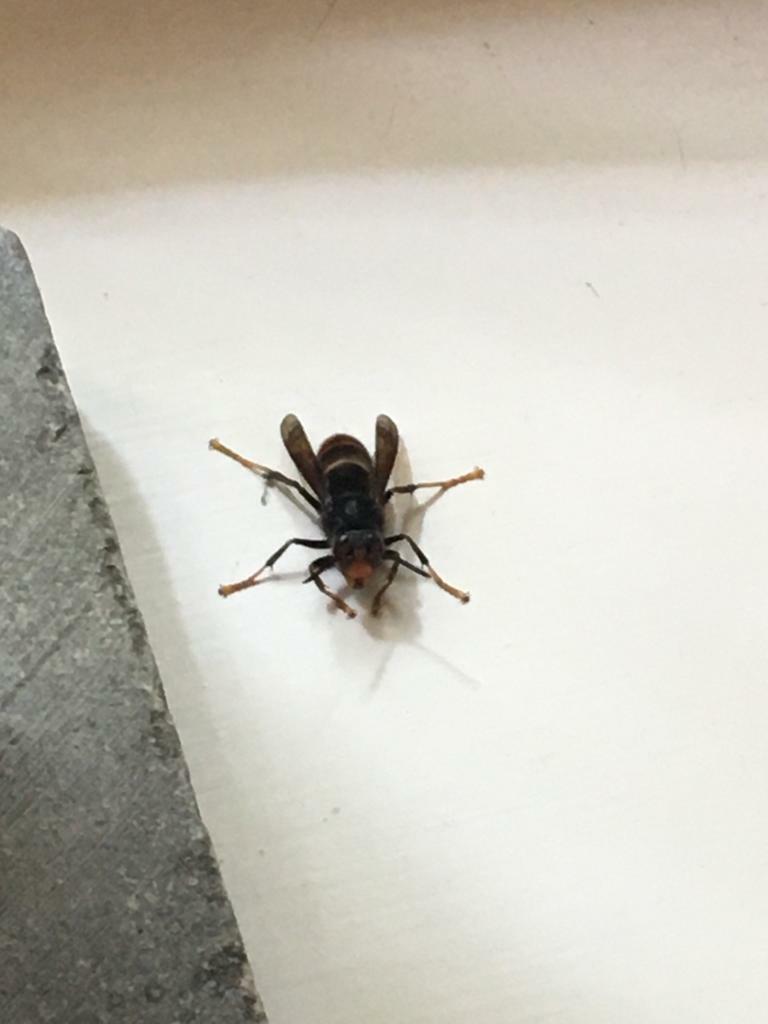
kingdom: Animalia
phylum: Arthropoda
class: Insecta
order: Hymenoptera
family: Vespidae
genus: Vespa
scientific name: Vespa velutina
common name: Asian hornet
